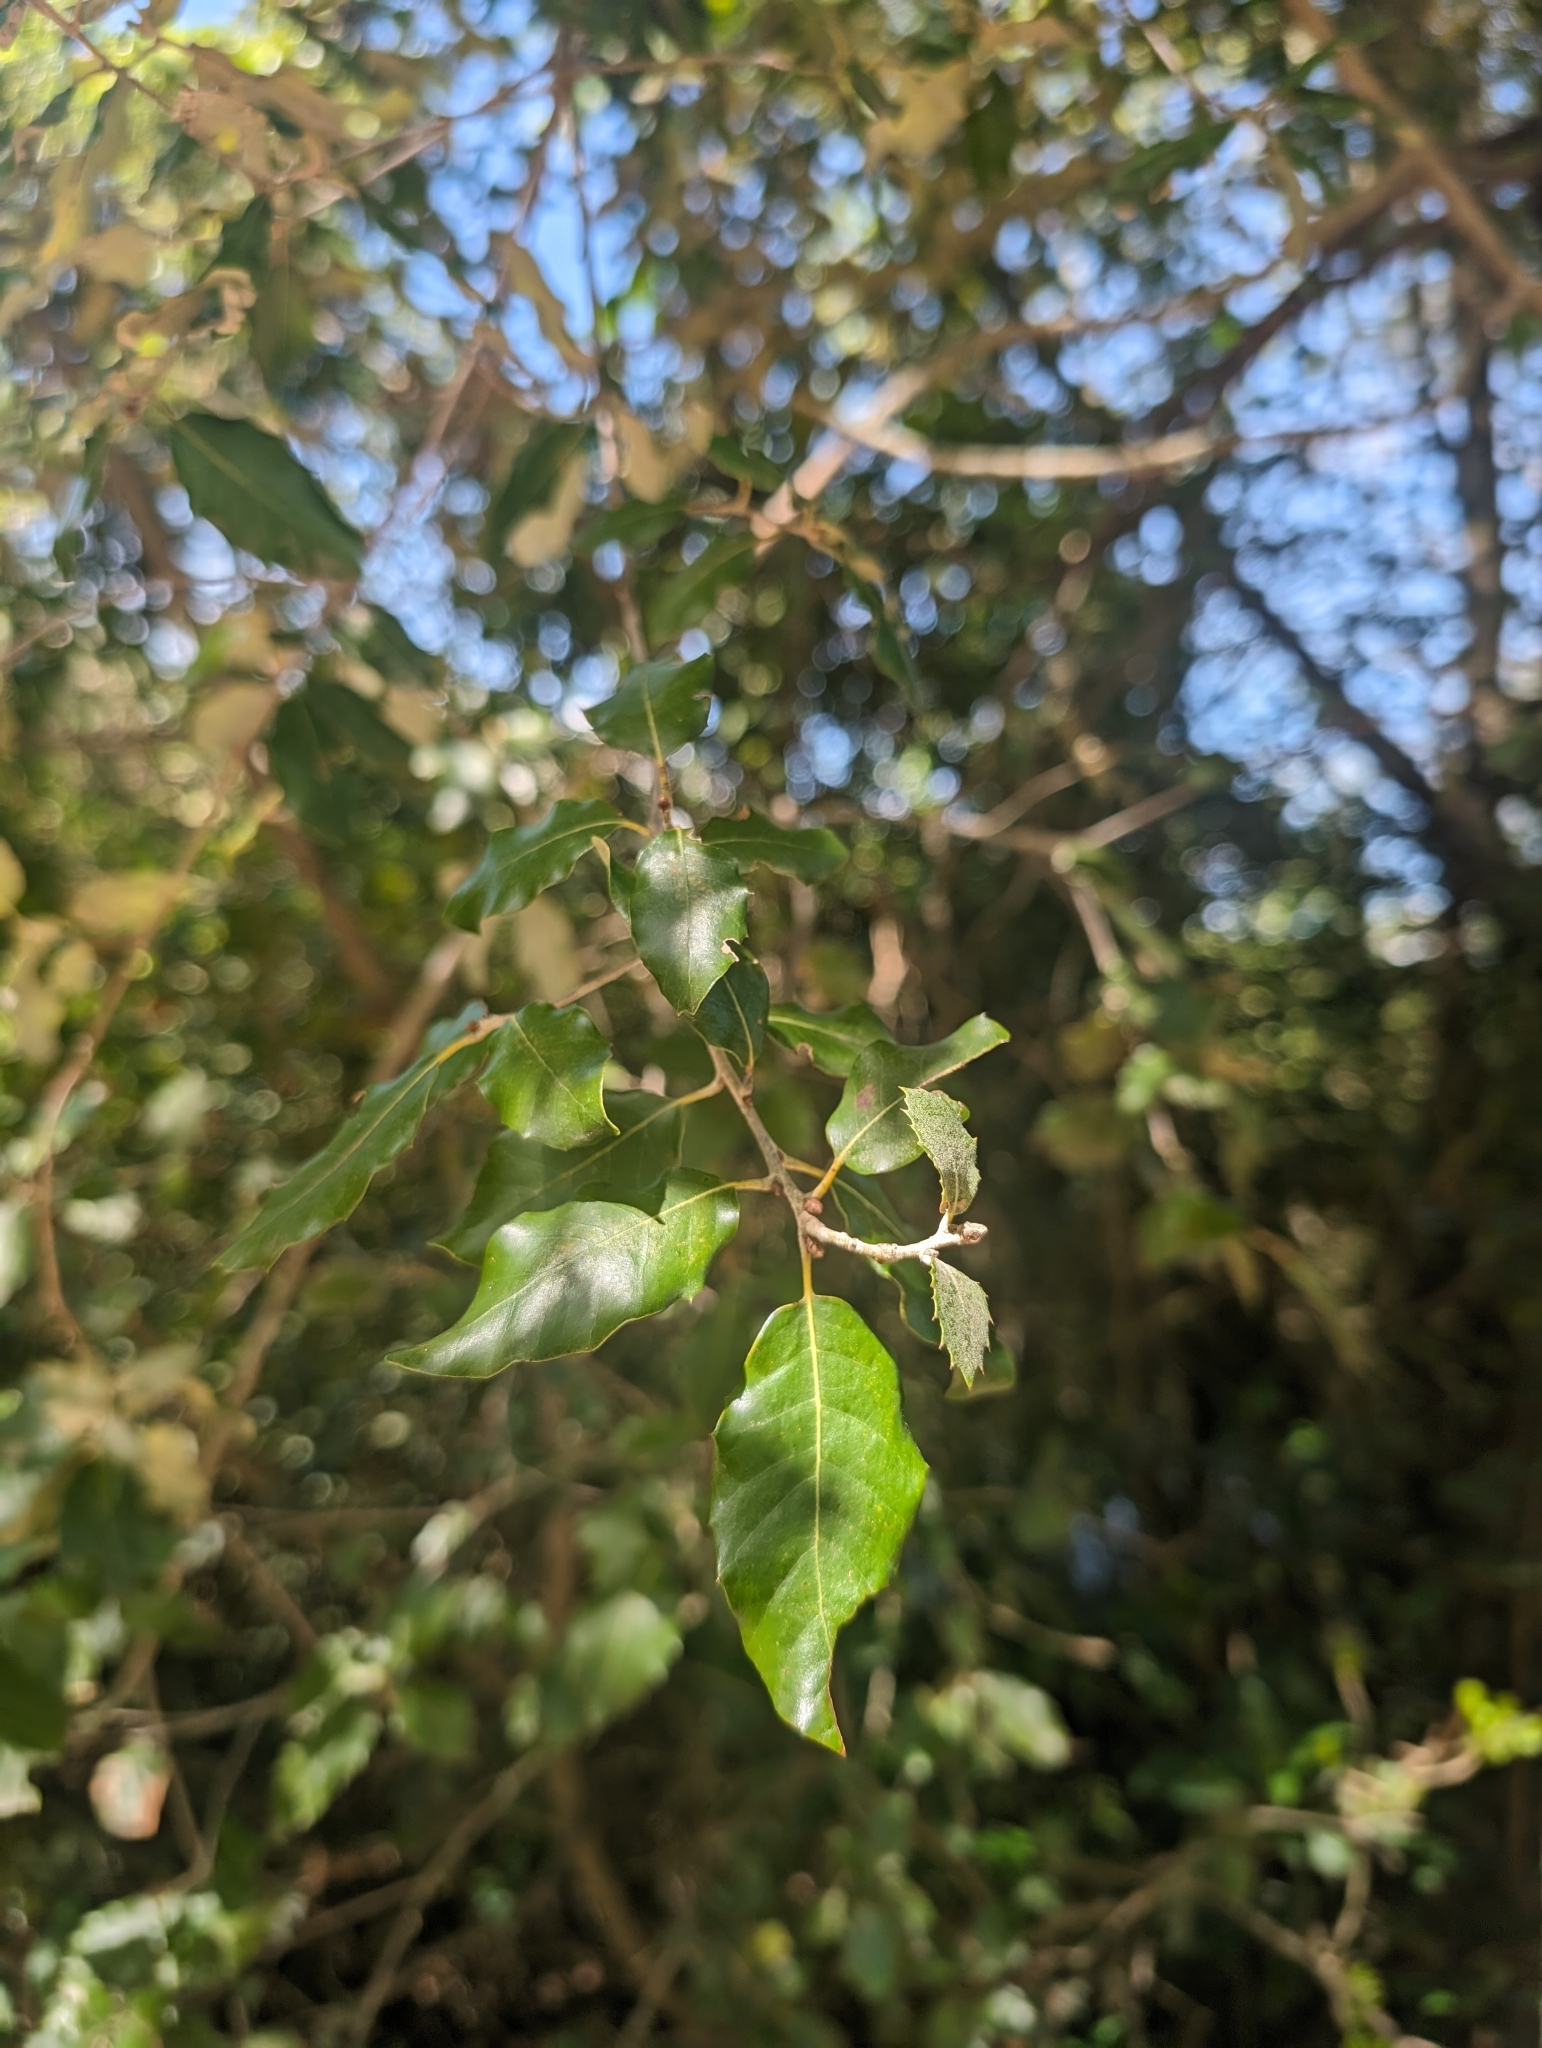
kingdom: Plantae
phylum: Tracheophyta
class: Magnoliopsida
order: Fagales
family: Fagaceae
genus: Quercus
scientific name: Quercus ilex
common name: Evergreen oak
